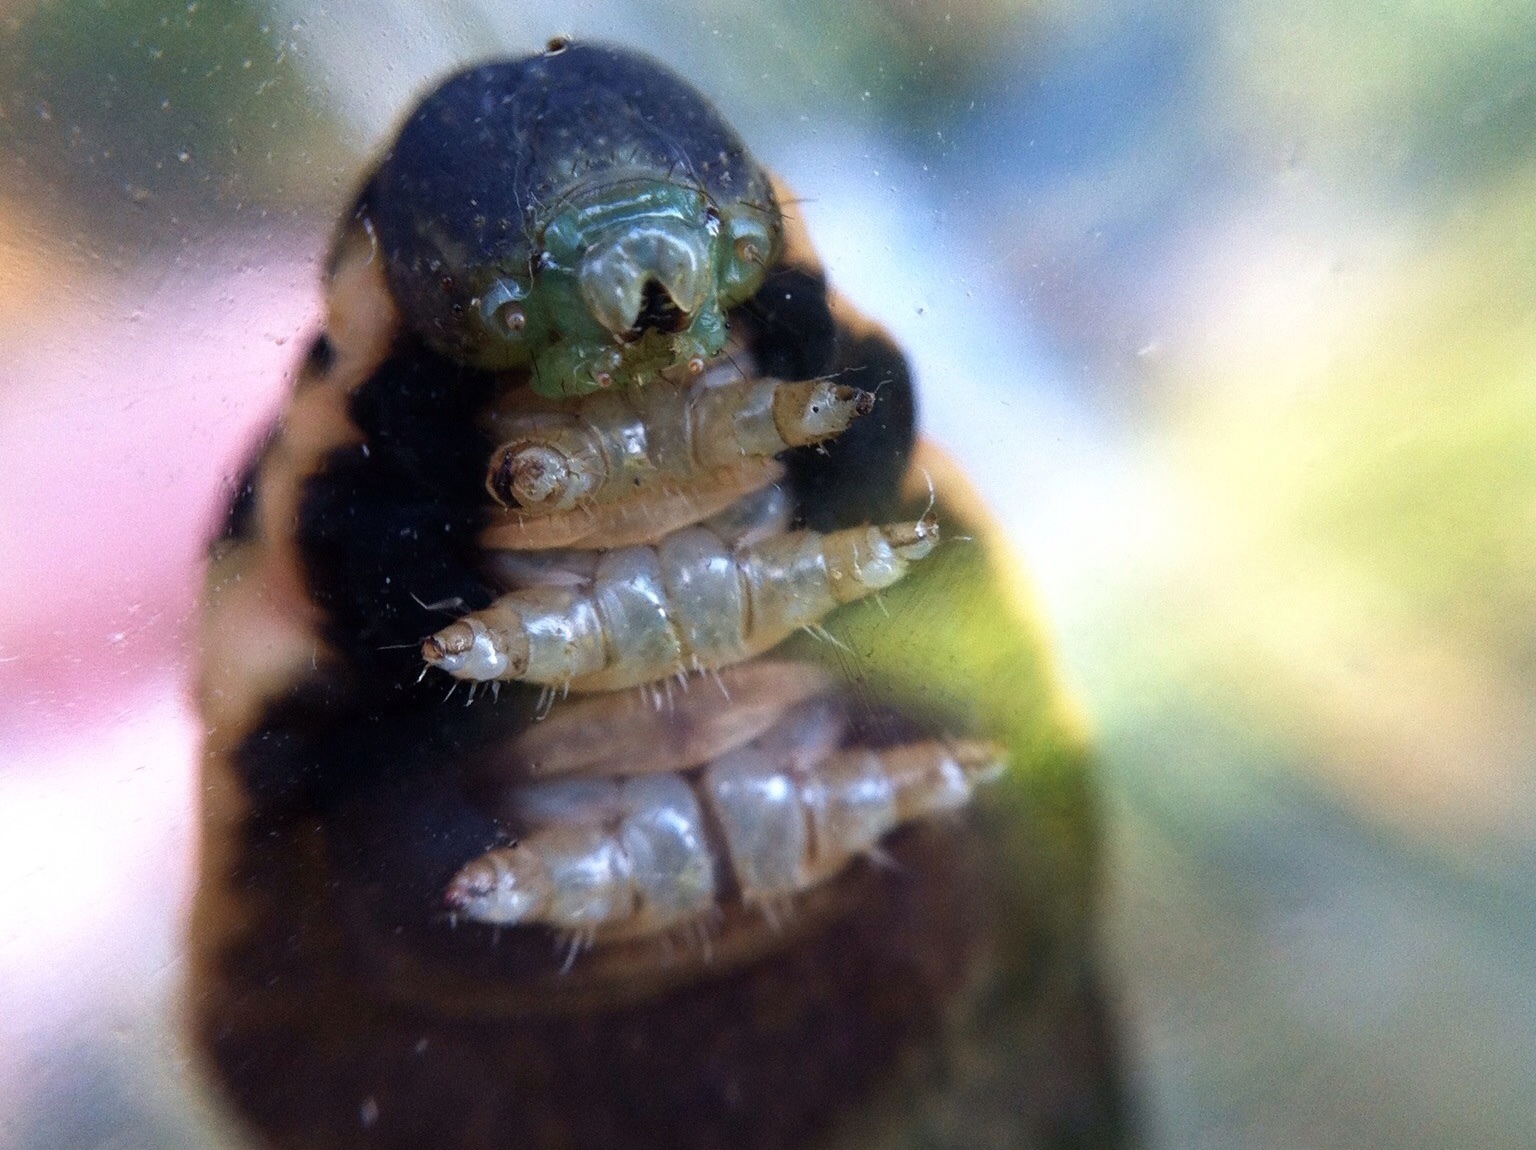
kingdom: Animalia
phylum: Arthropoda
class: Insecta
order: Lepidoptera
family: Sphingidae
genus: Deilephila
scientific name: Deilephila elpenor
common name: Elephant hawk-moth
